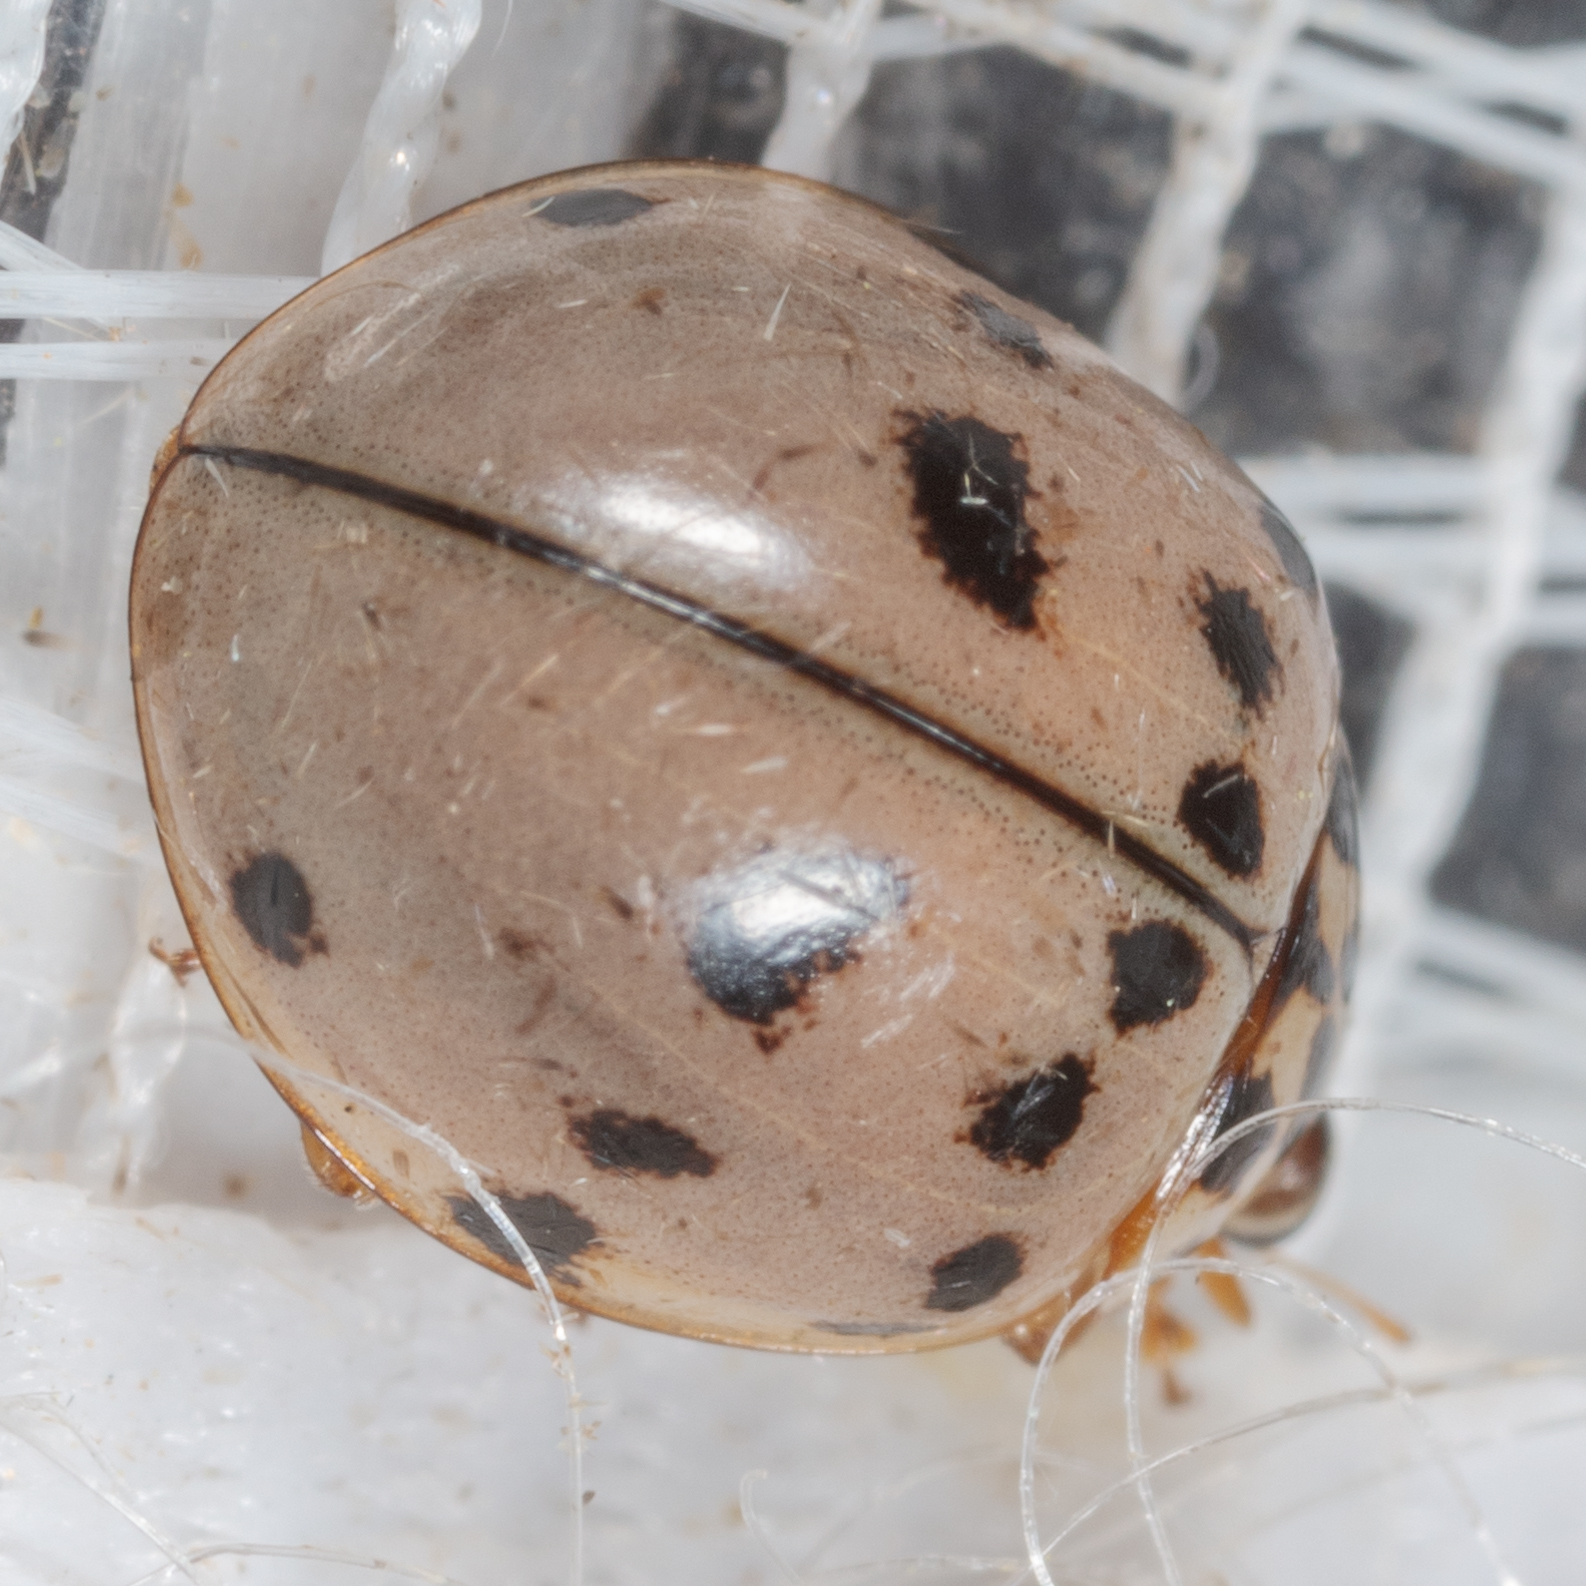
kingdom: Animalia
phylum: Arthropoda
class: Insecta
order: Coleoptera
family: Coccinellidae
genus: Olla
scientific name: Olla v-nigrum
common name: Ashy gray lady beetle
